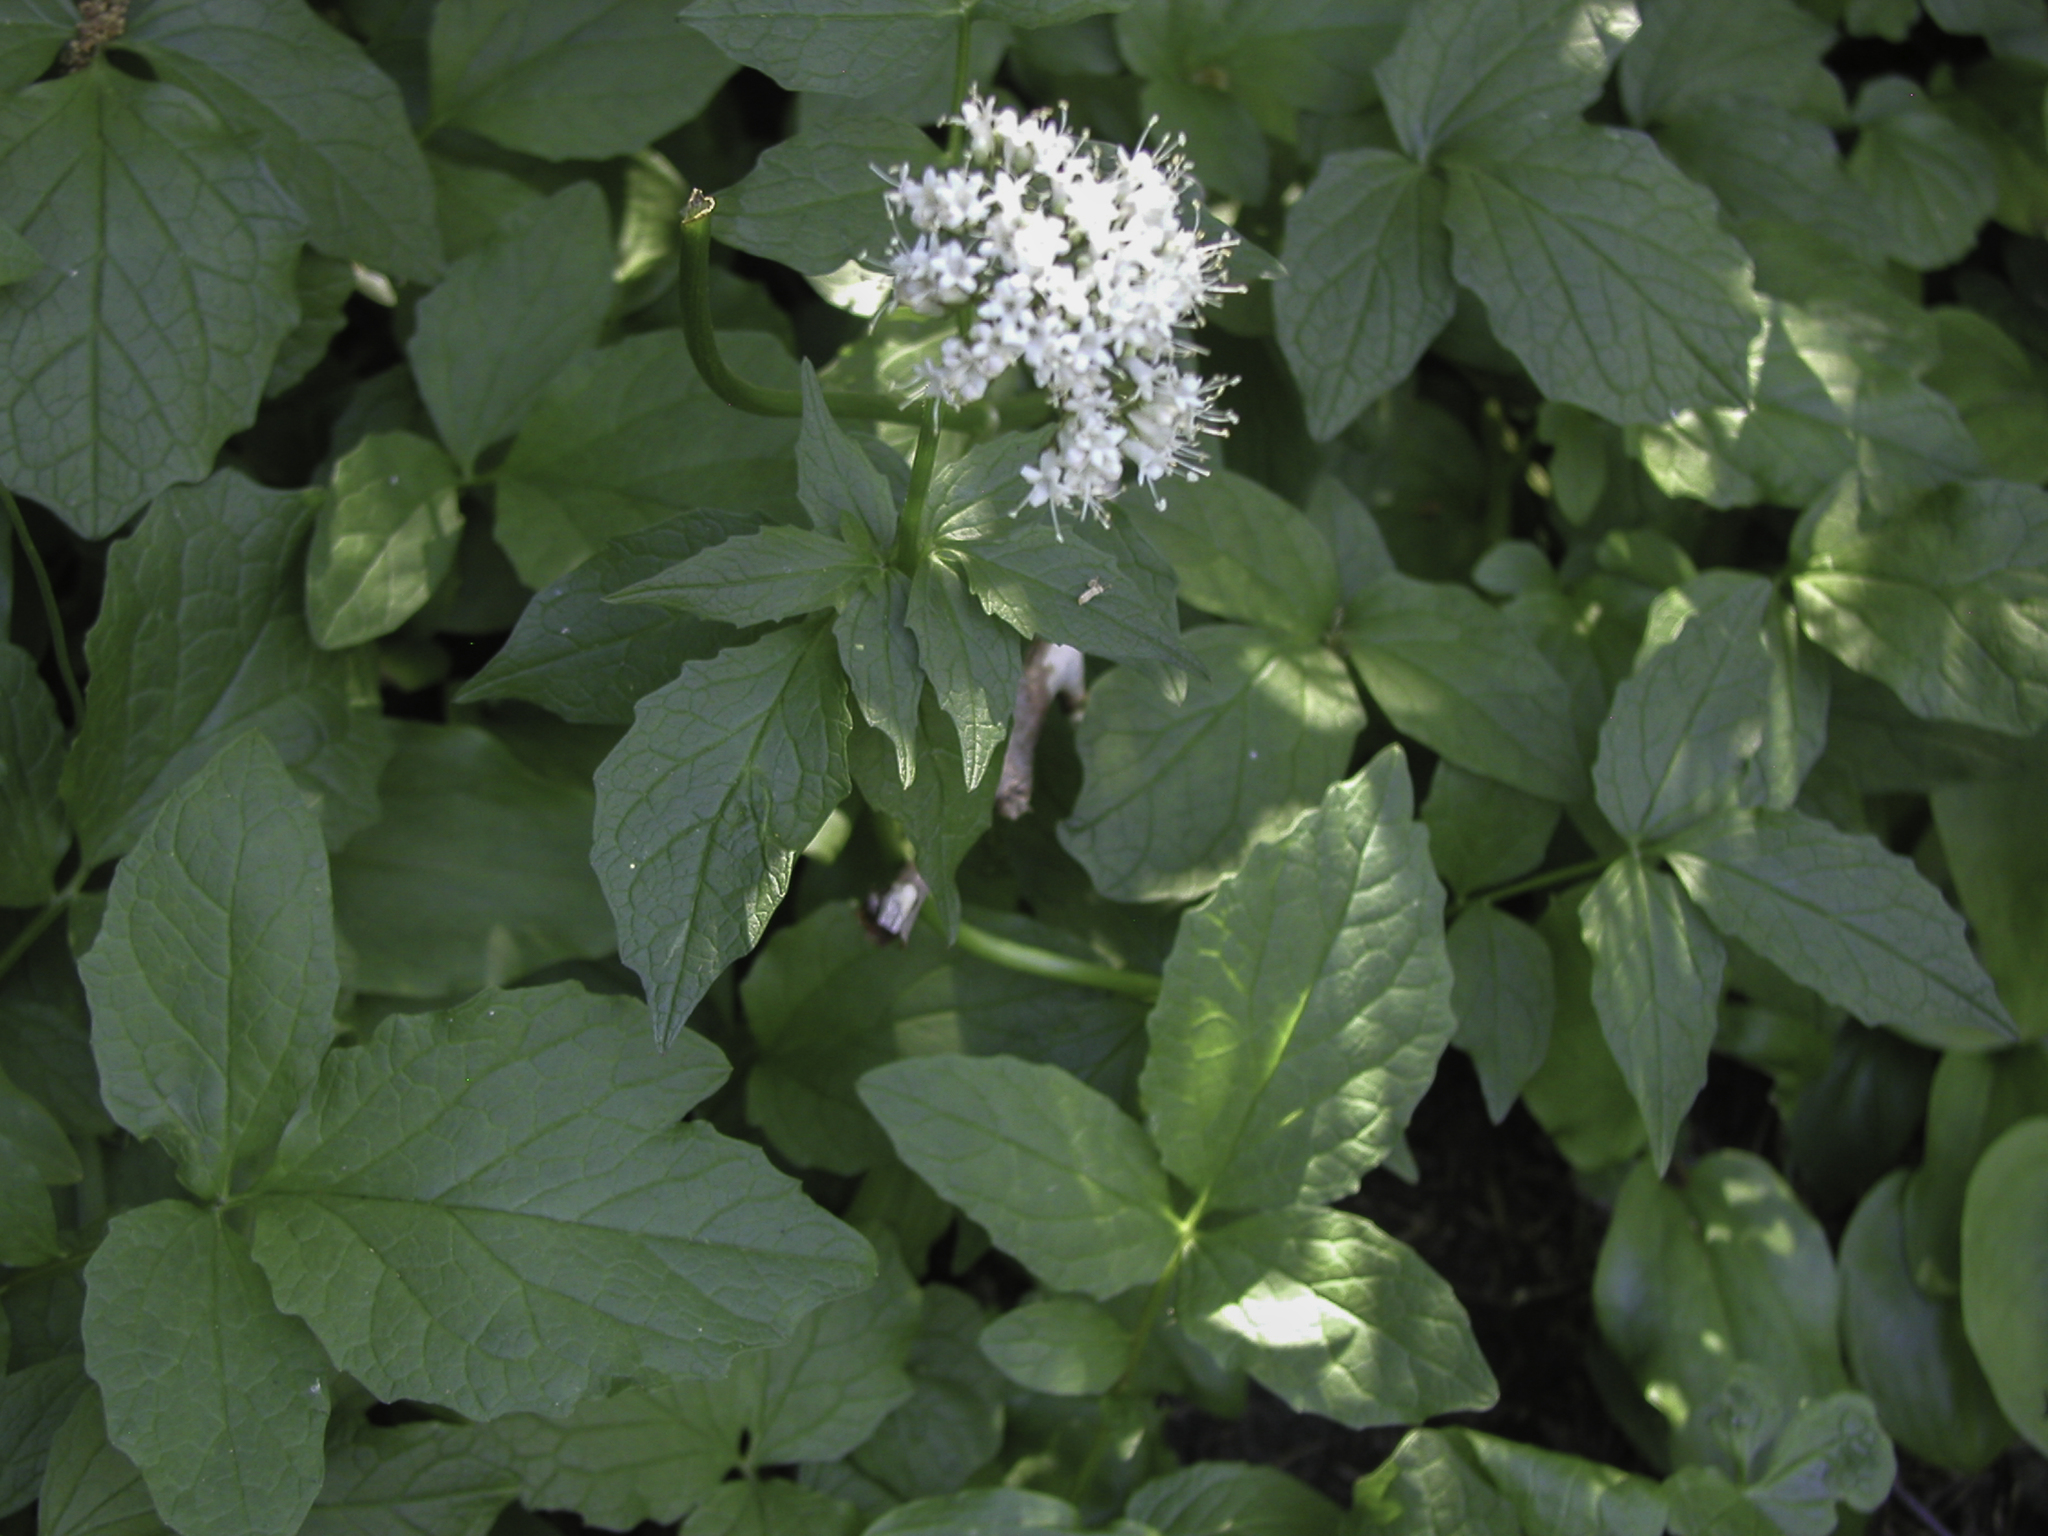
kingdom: Plantae
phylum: Tracheophyta
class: Magnoliopsida
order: Dipsacales
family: Caprifoliaceae
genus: Valeriana
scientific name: Valeriana sitchensis
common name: Pacific valerian
